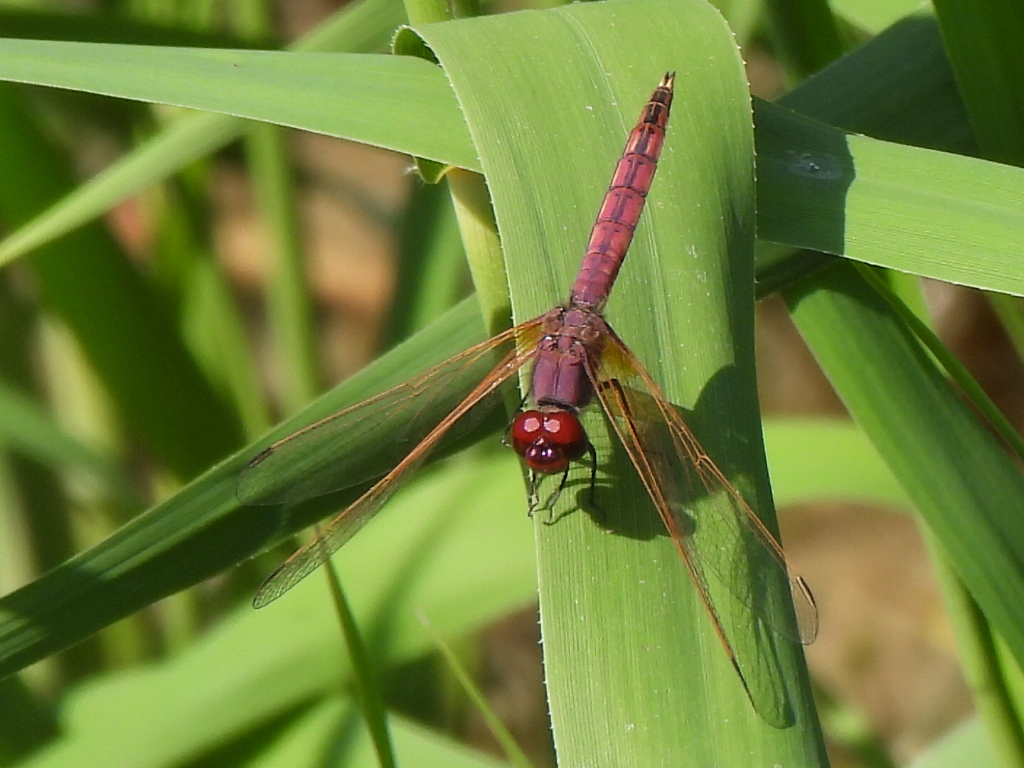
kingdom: Animalia
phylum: Arthropoda
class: Insecta
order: Odonata
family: Libellulidae
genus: Trithemis
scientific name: Trithemis annulata
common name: Violet dropwing
